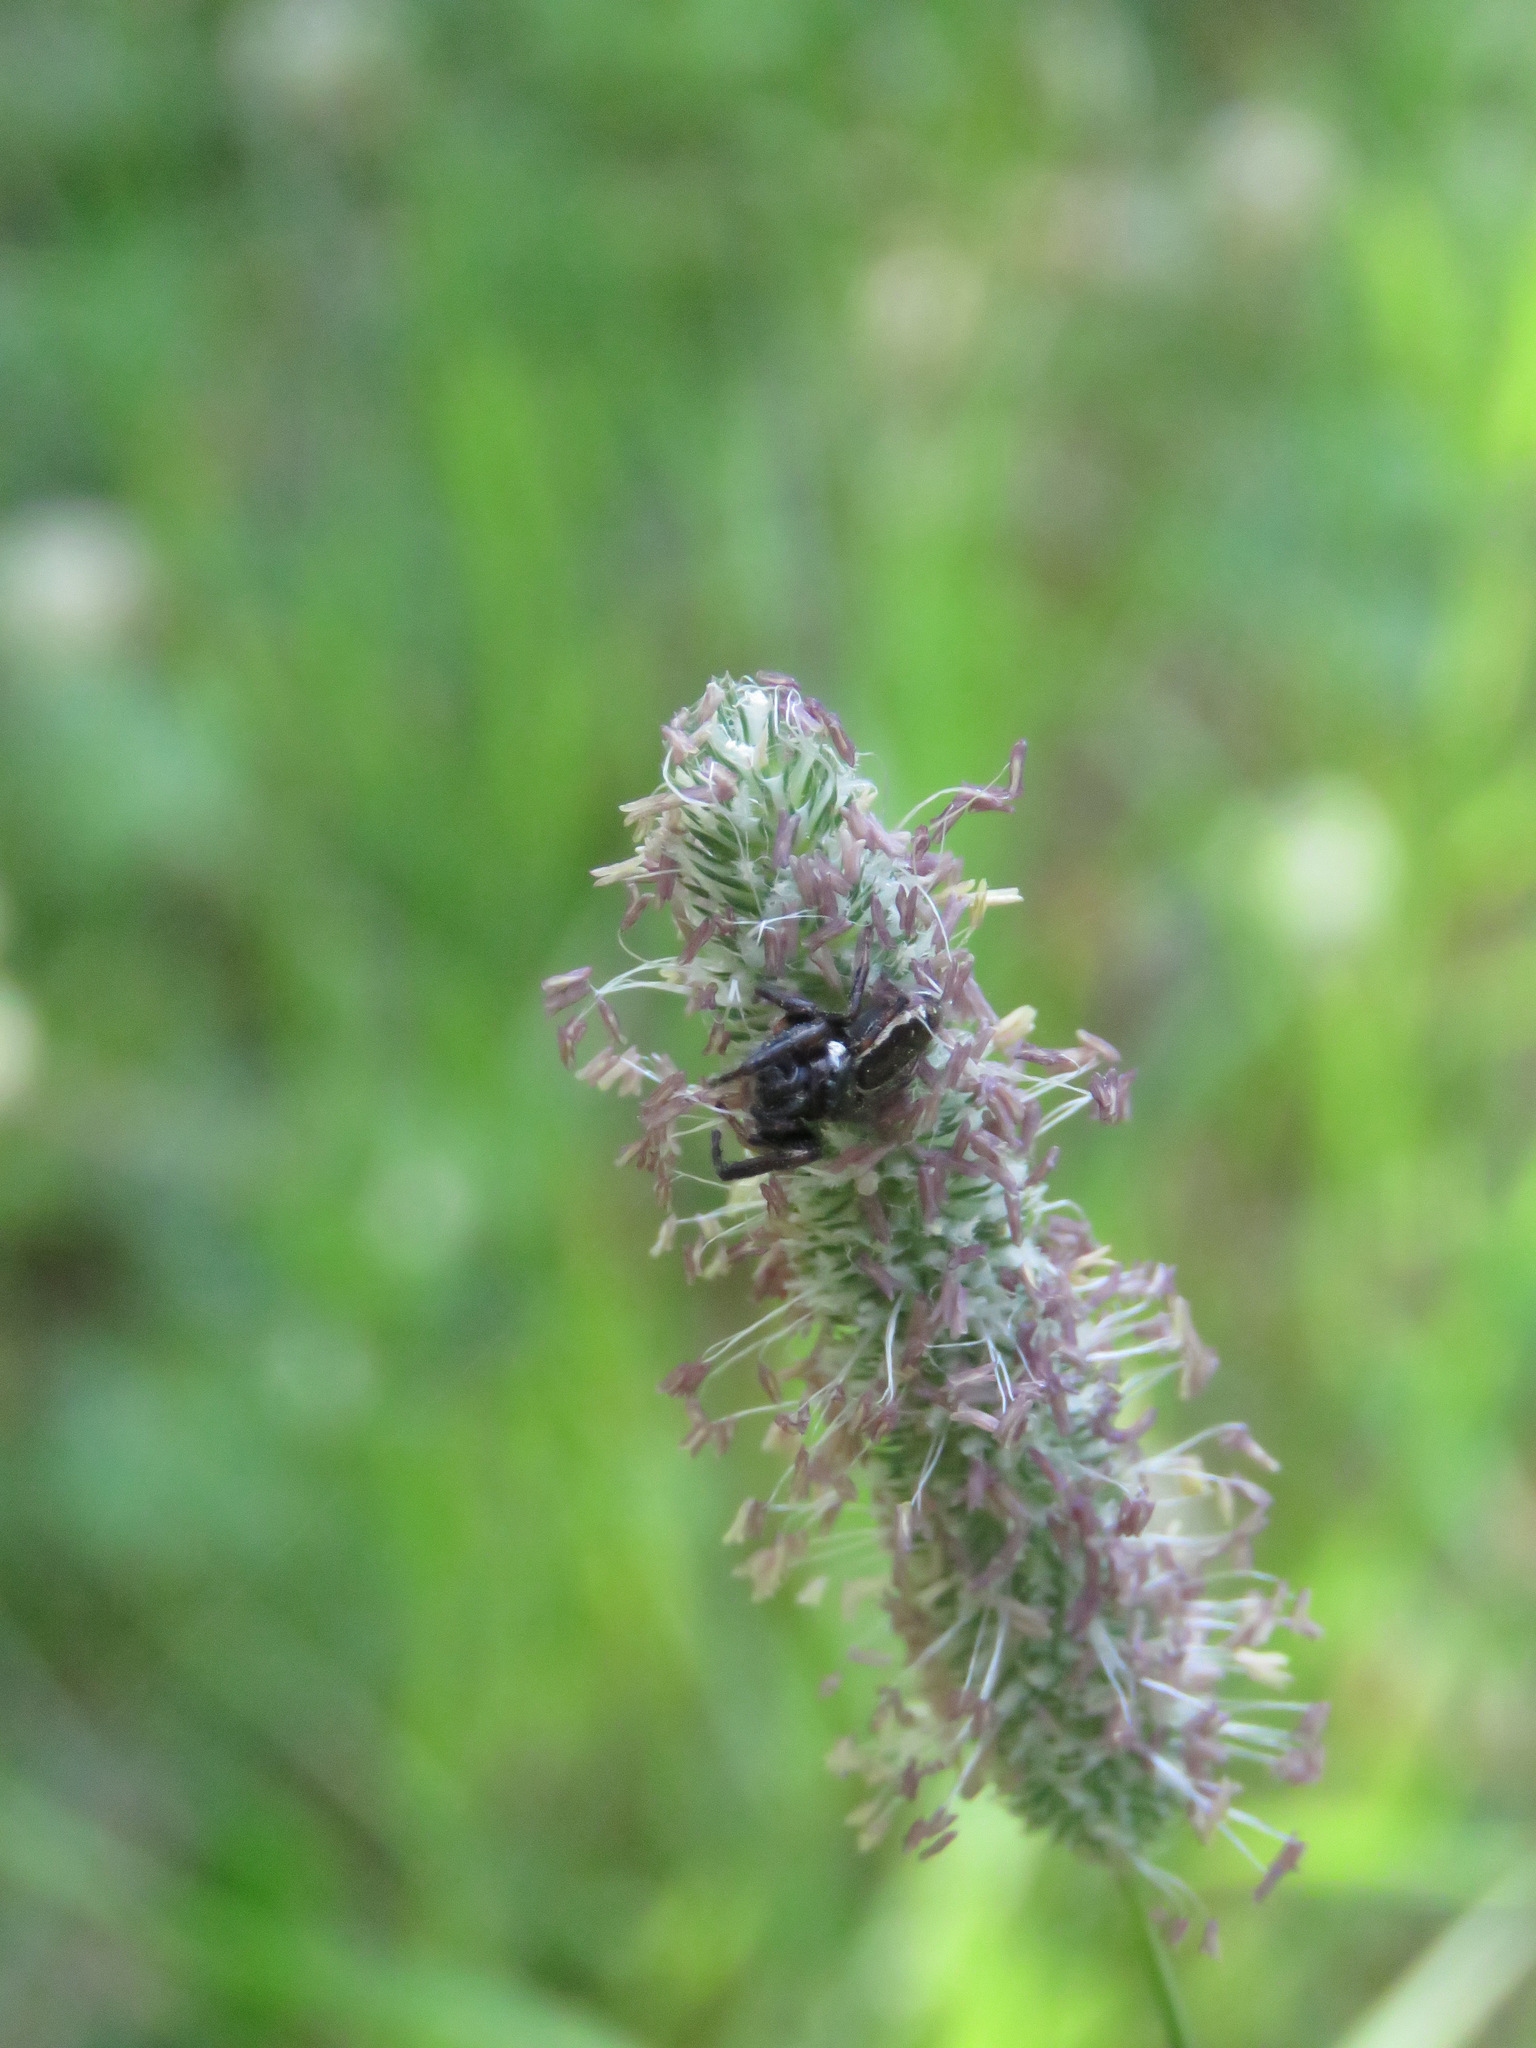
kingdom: Animalia
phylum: Arthropoda
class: Arachnida
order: Araneae
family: Salticidae
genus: Eris
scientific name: Eris militaris
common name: Bronze jumper
